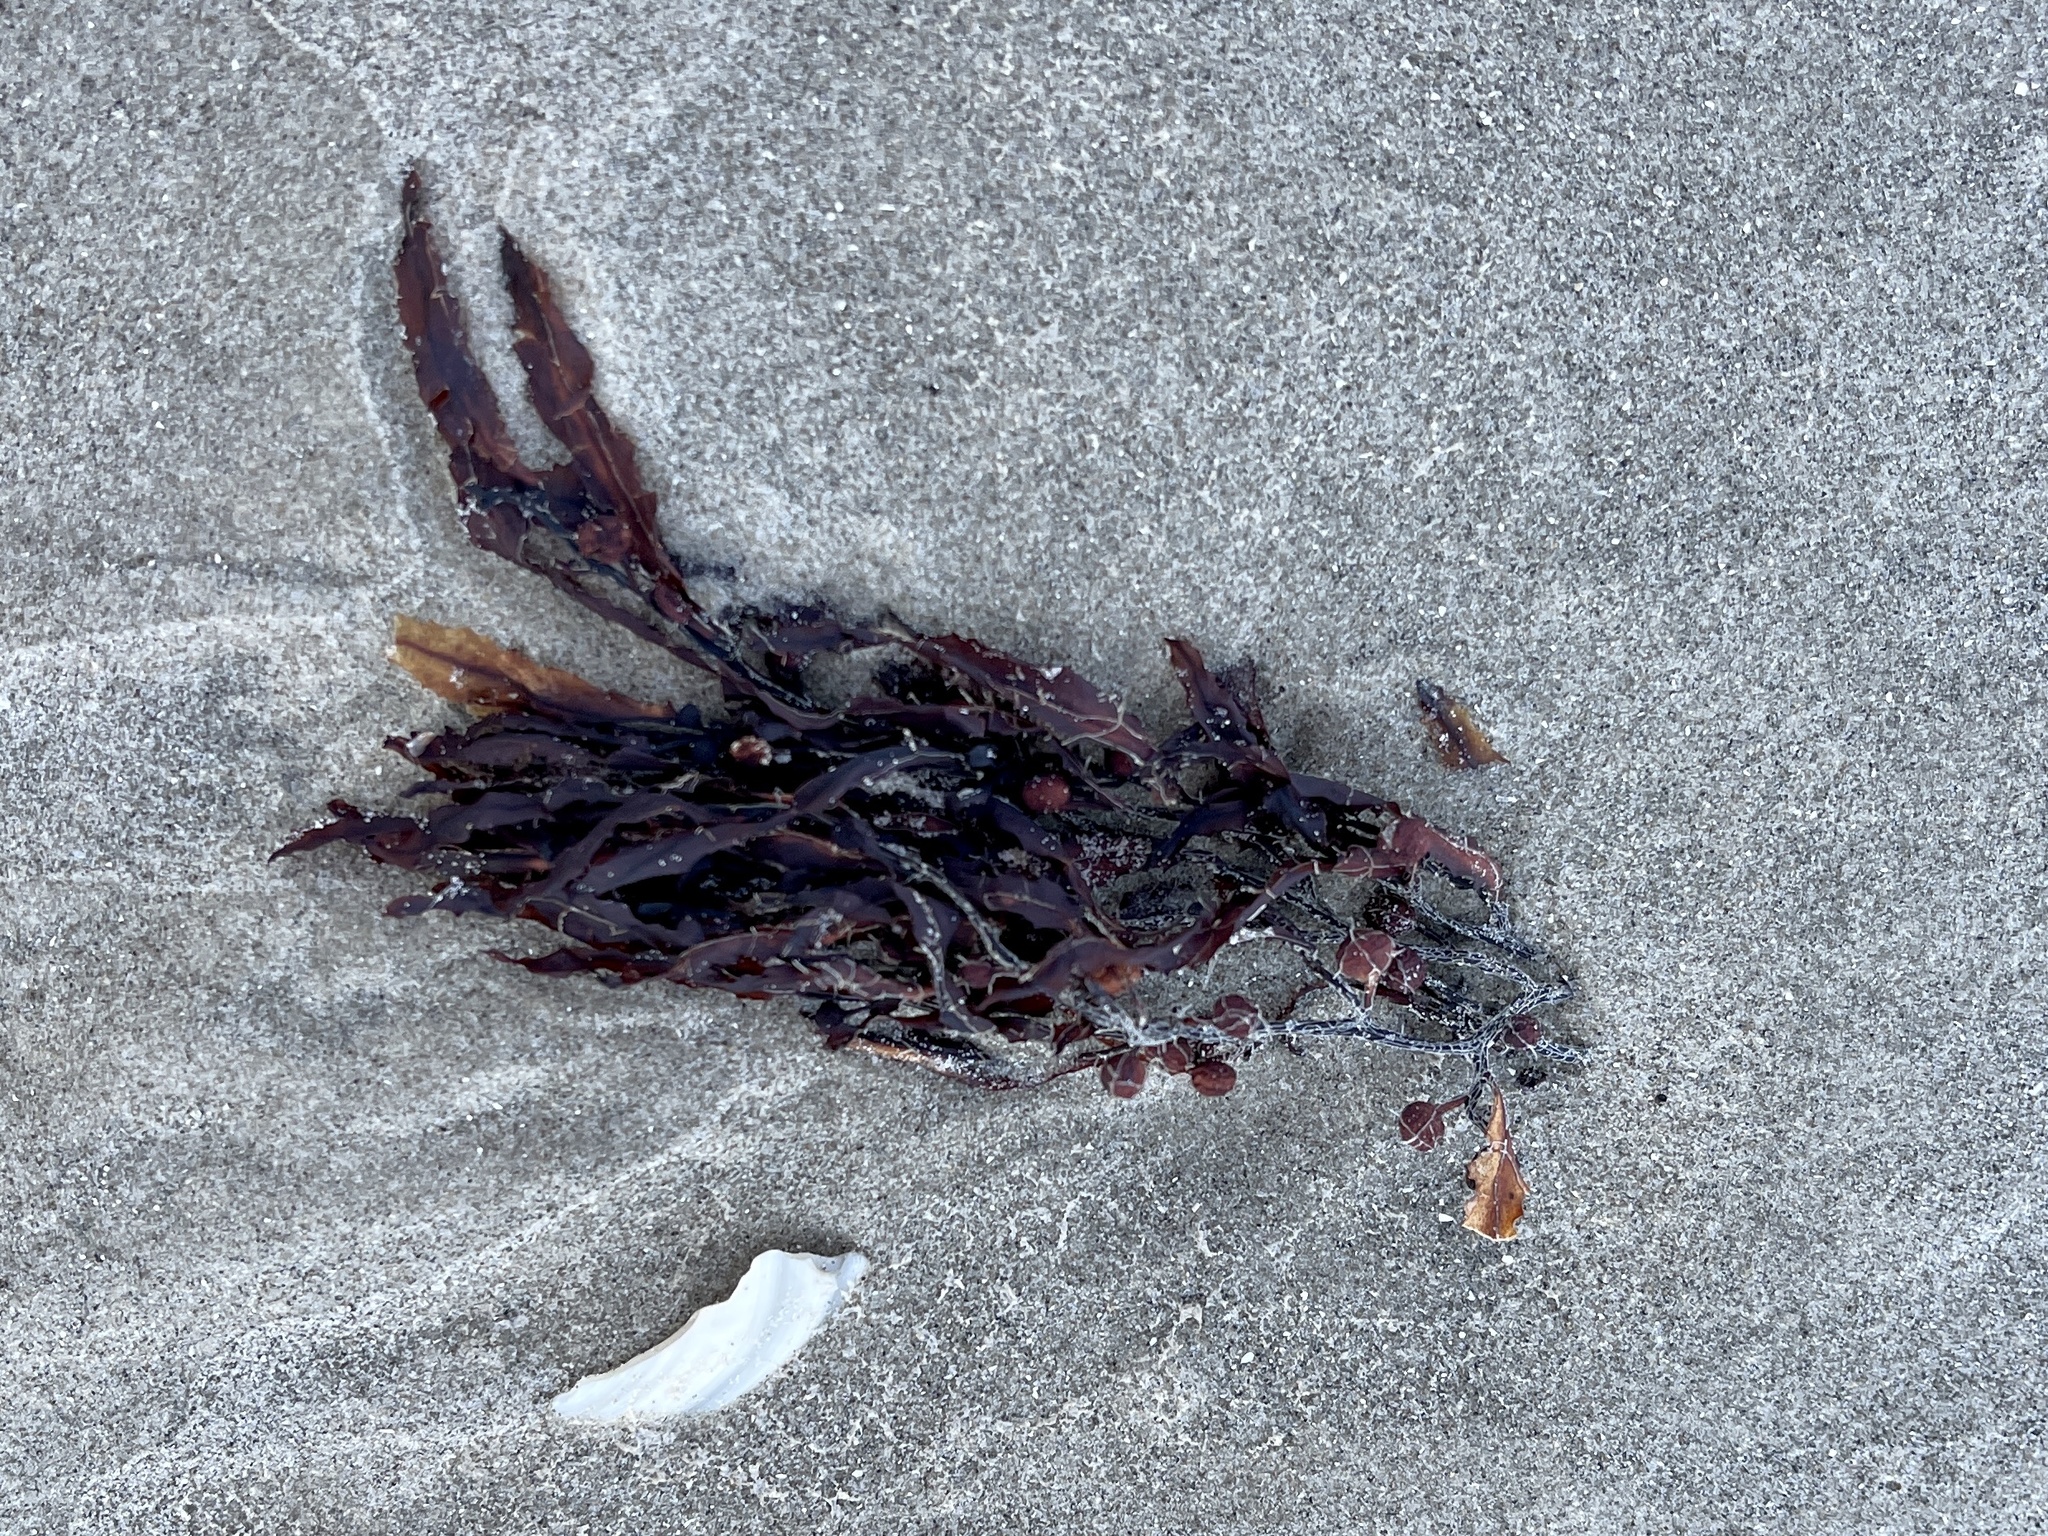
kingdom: Chromista
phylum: Ochrophyta
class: Phaeophyceae
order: Fucales
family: Sargassaceae
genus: Sargassum
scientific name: Sargassum fluitans
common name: Sargassum seaweed
